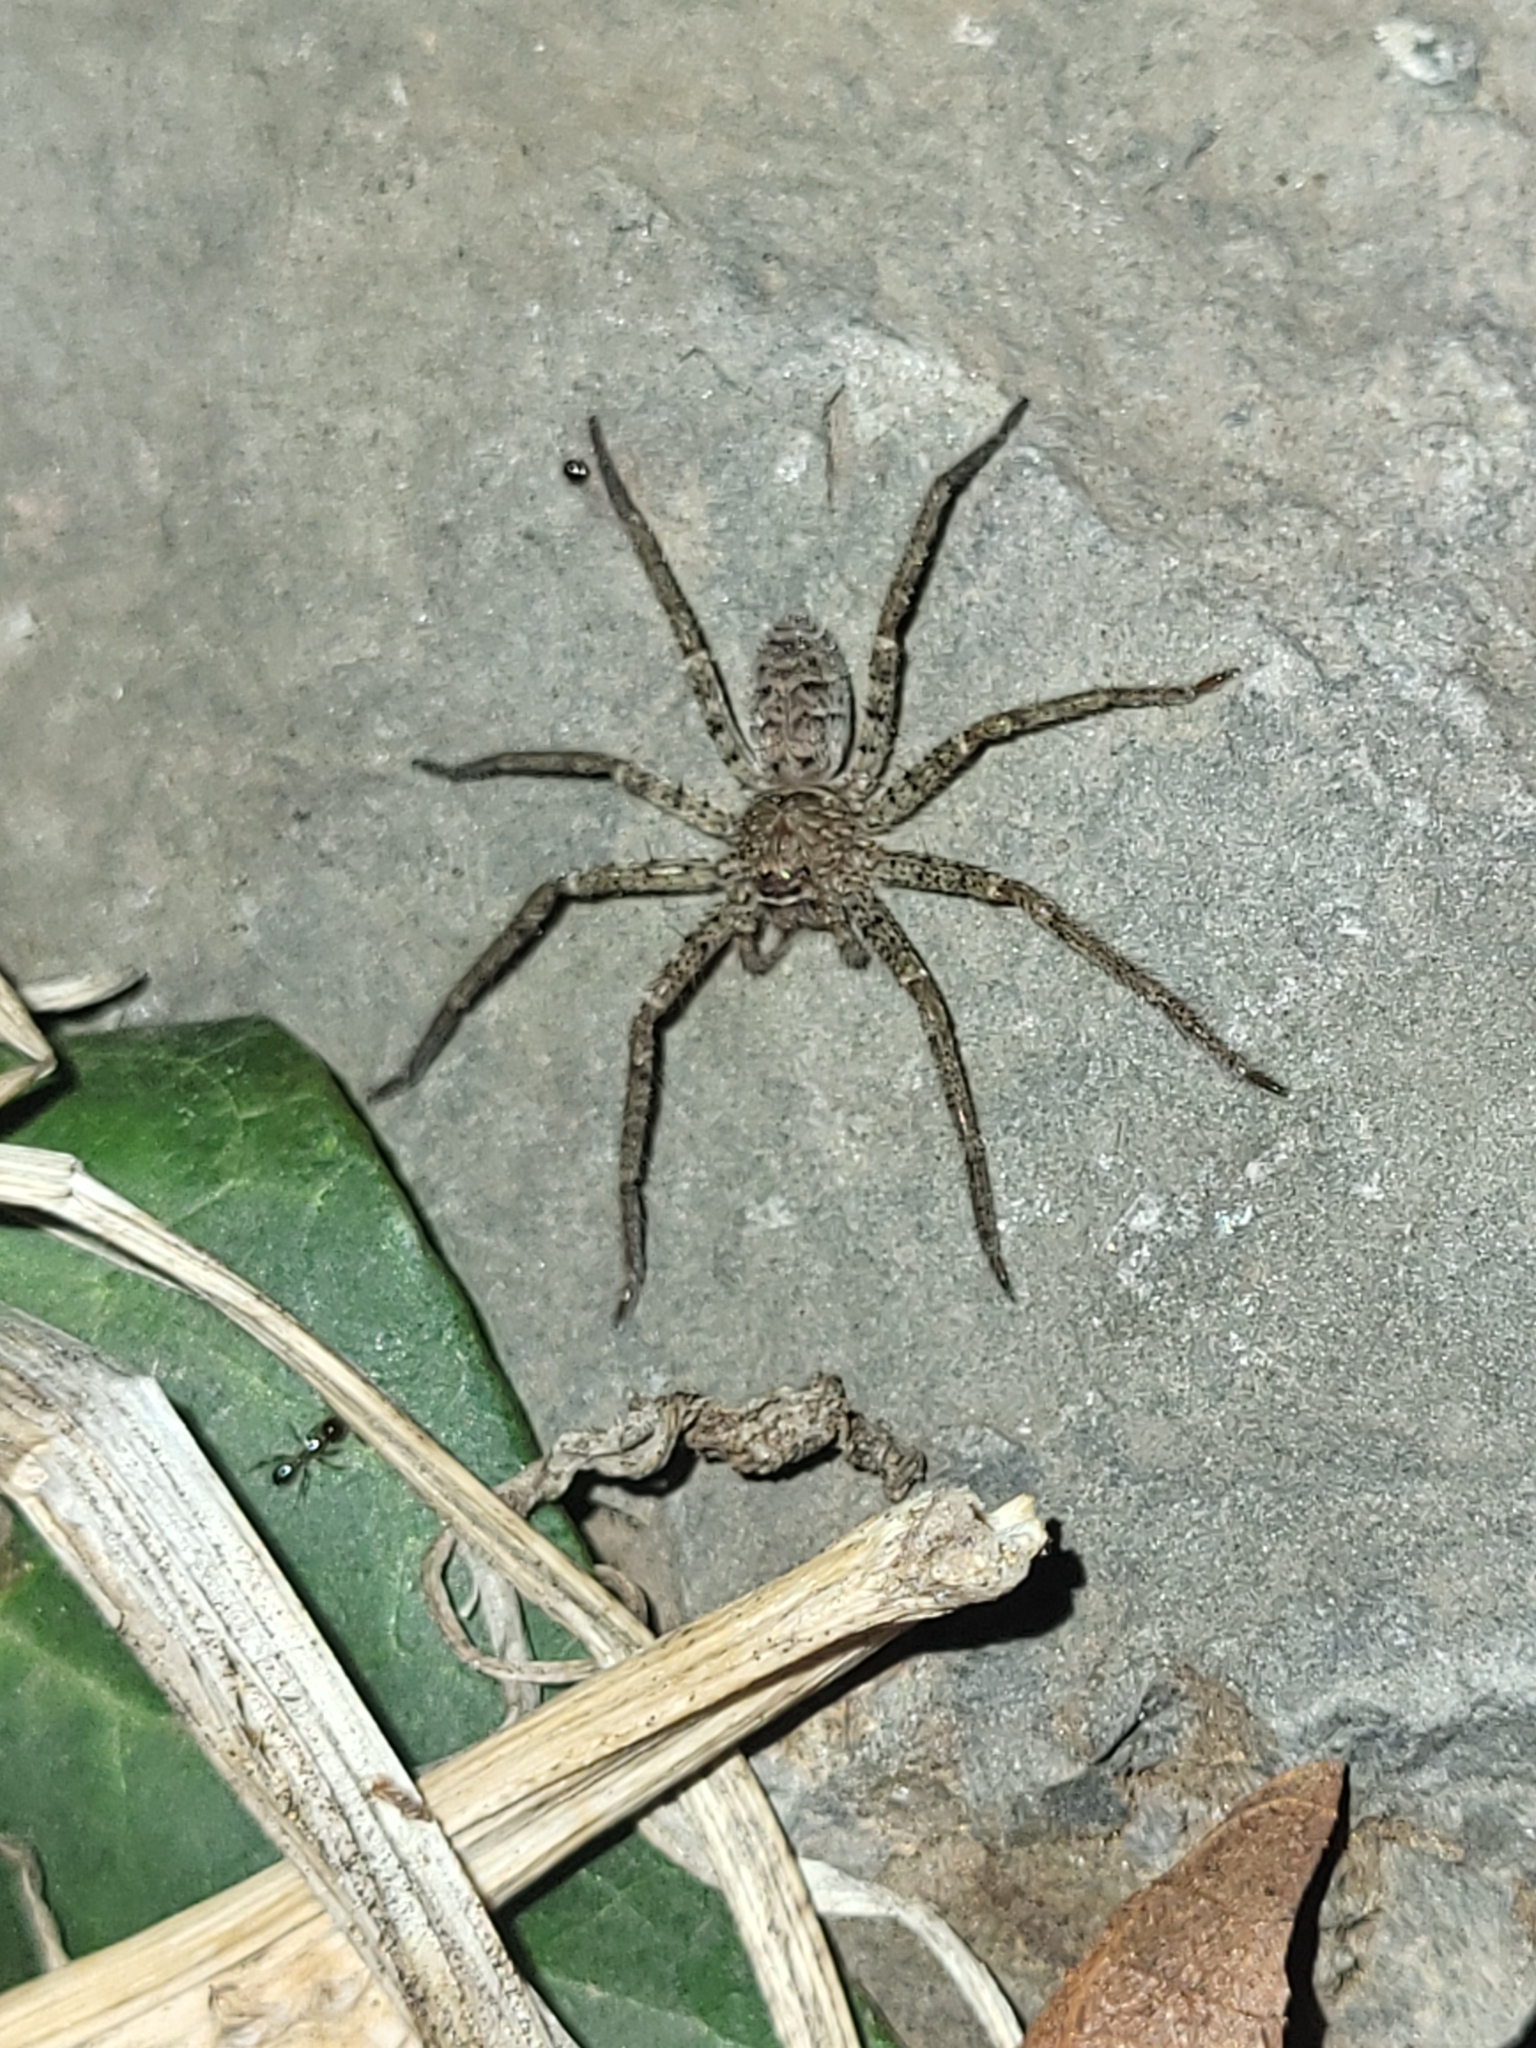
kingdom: Animalia
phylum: Arthropoda
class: Arachnida
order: Araneae
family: Sparassidae
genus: Heteropoda
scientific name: Heteropoda venatoria
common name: Huntsman spider
